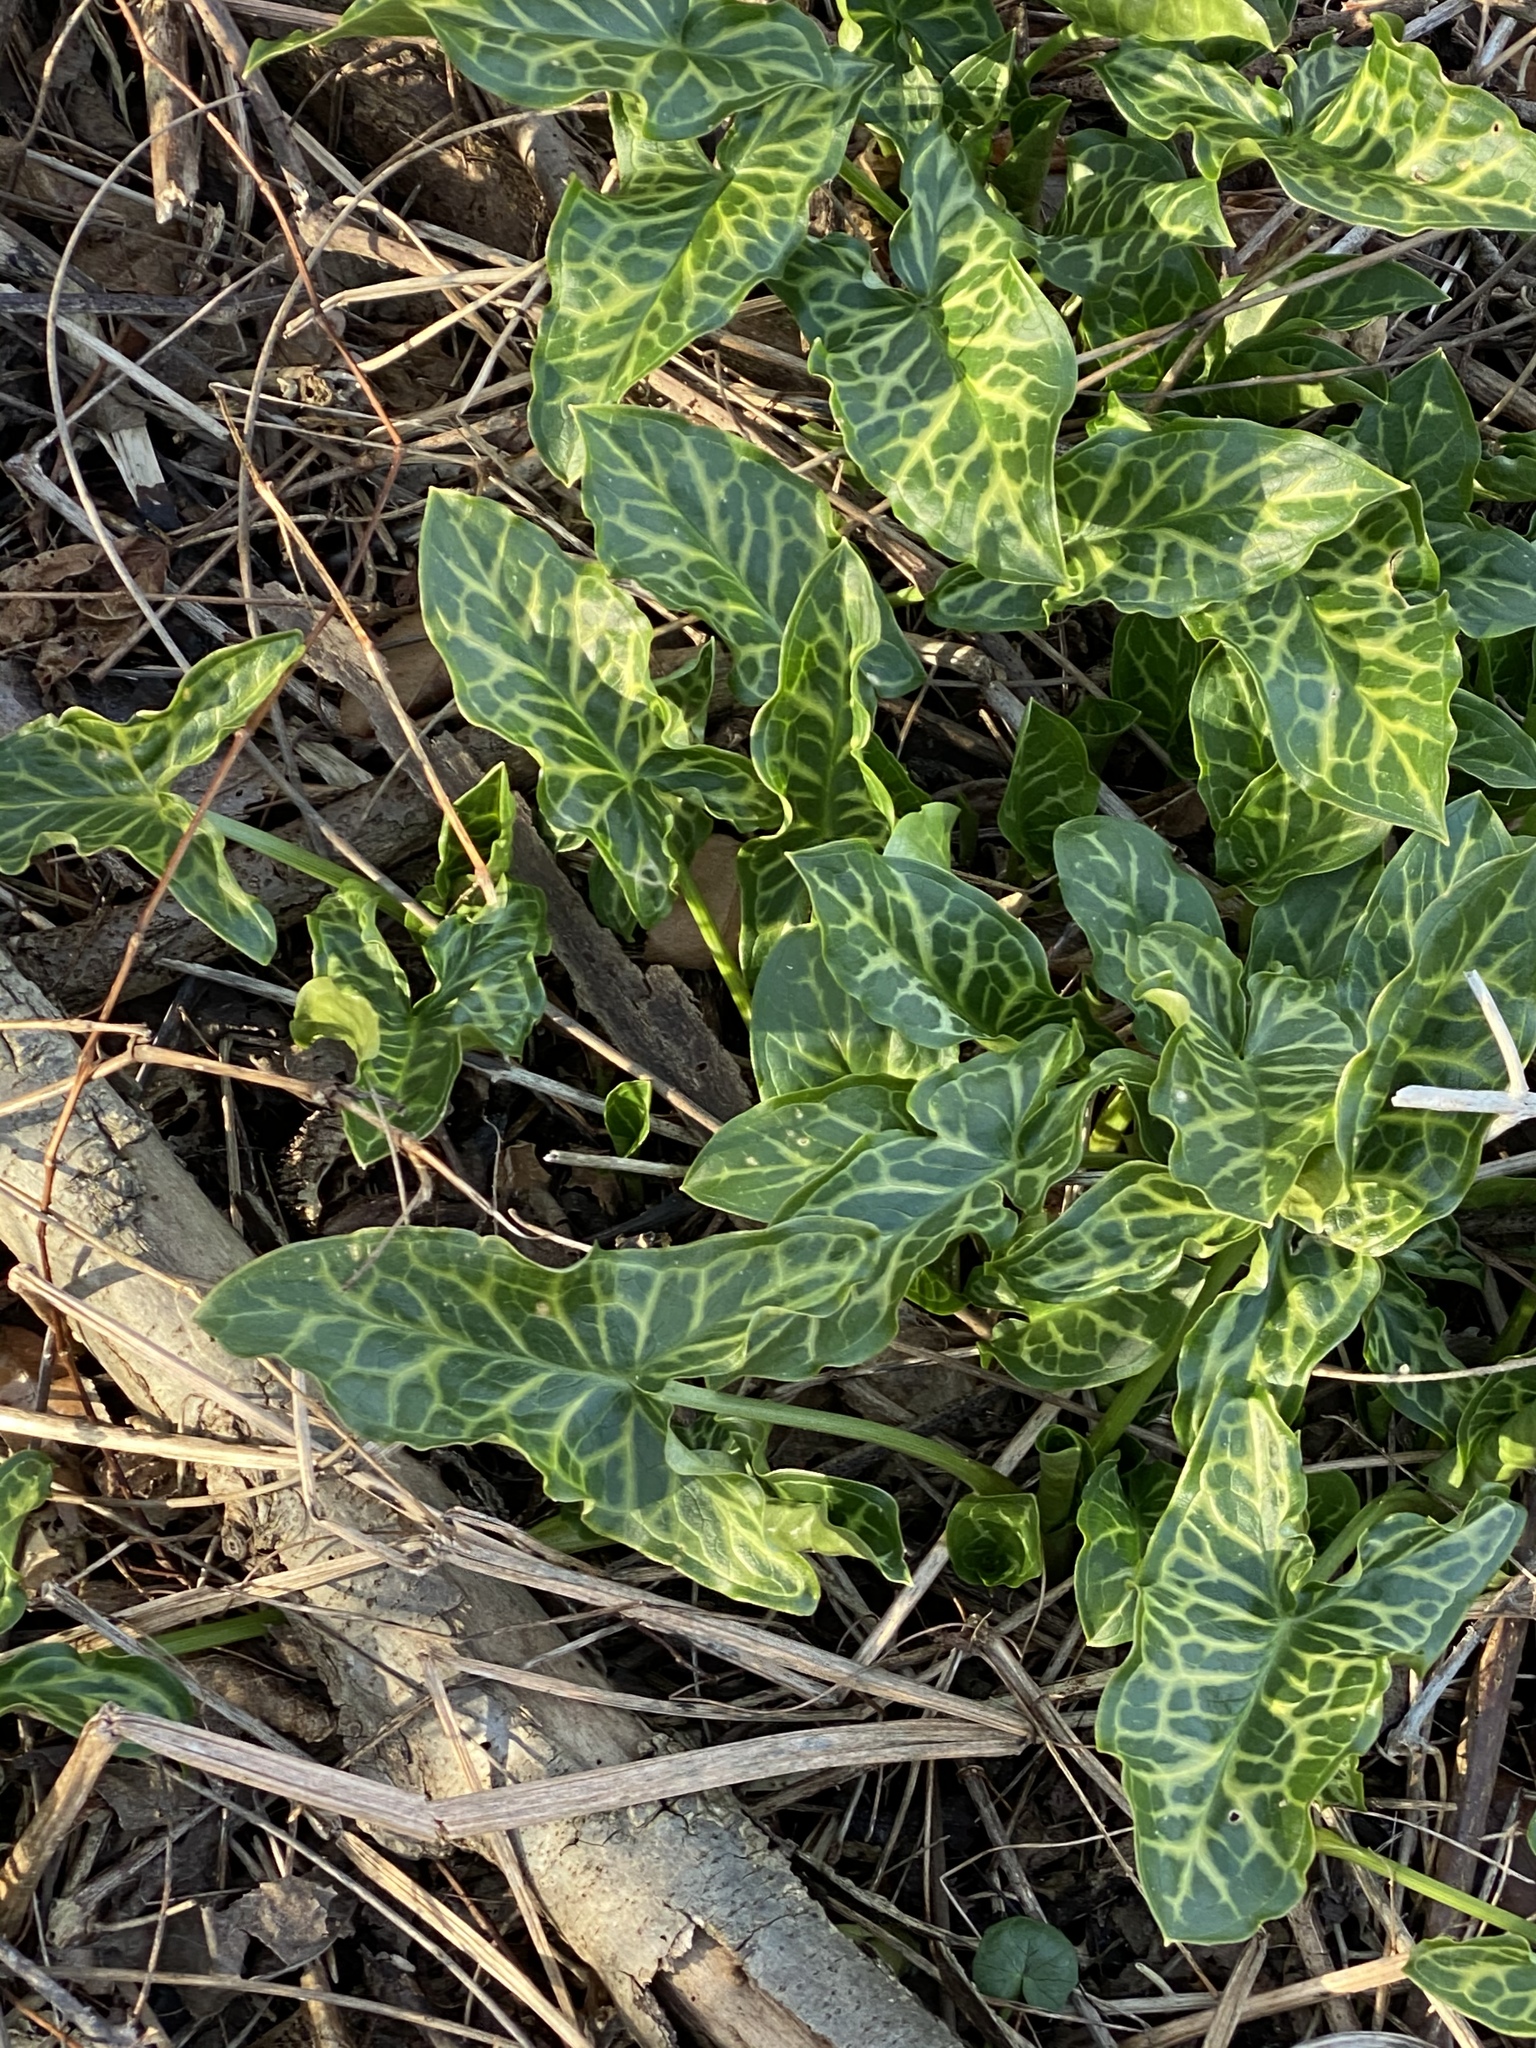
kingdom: Plantae
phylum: Tracheophyta
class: Liliopsida
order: Alismatales
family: Araceae
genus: Arum
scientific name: Arum italicum
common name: Italian lords-and-ladies
